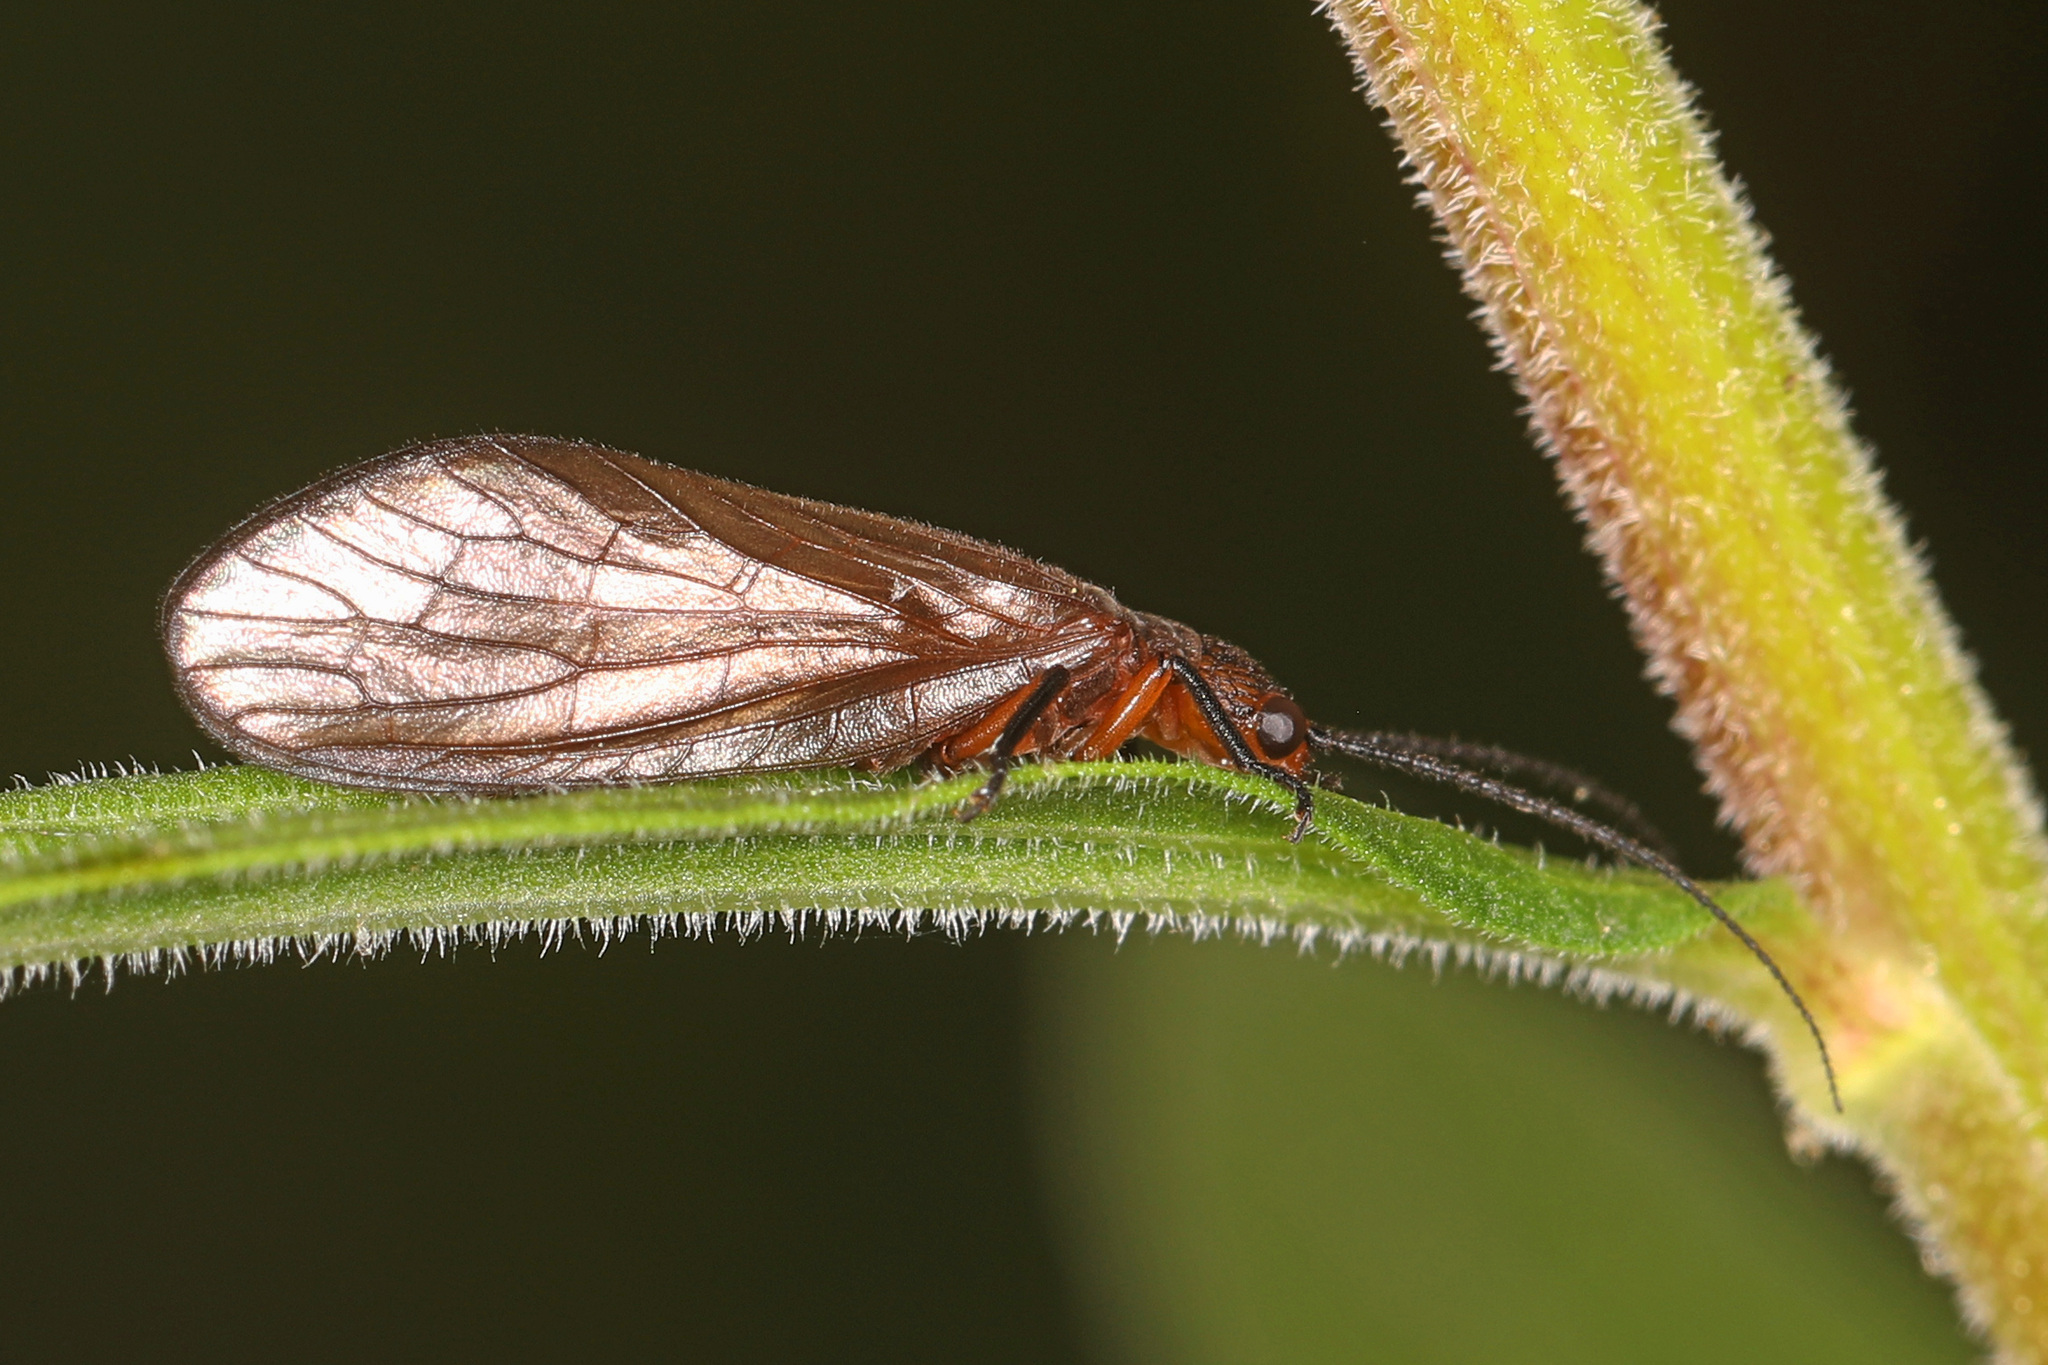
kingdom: Animalia
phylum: Arthropoda
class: Insecta
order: Megaloptera
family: Sialidae
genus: Protosialis
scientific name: Protosialis americana
